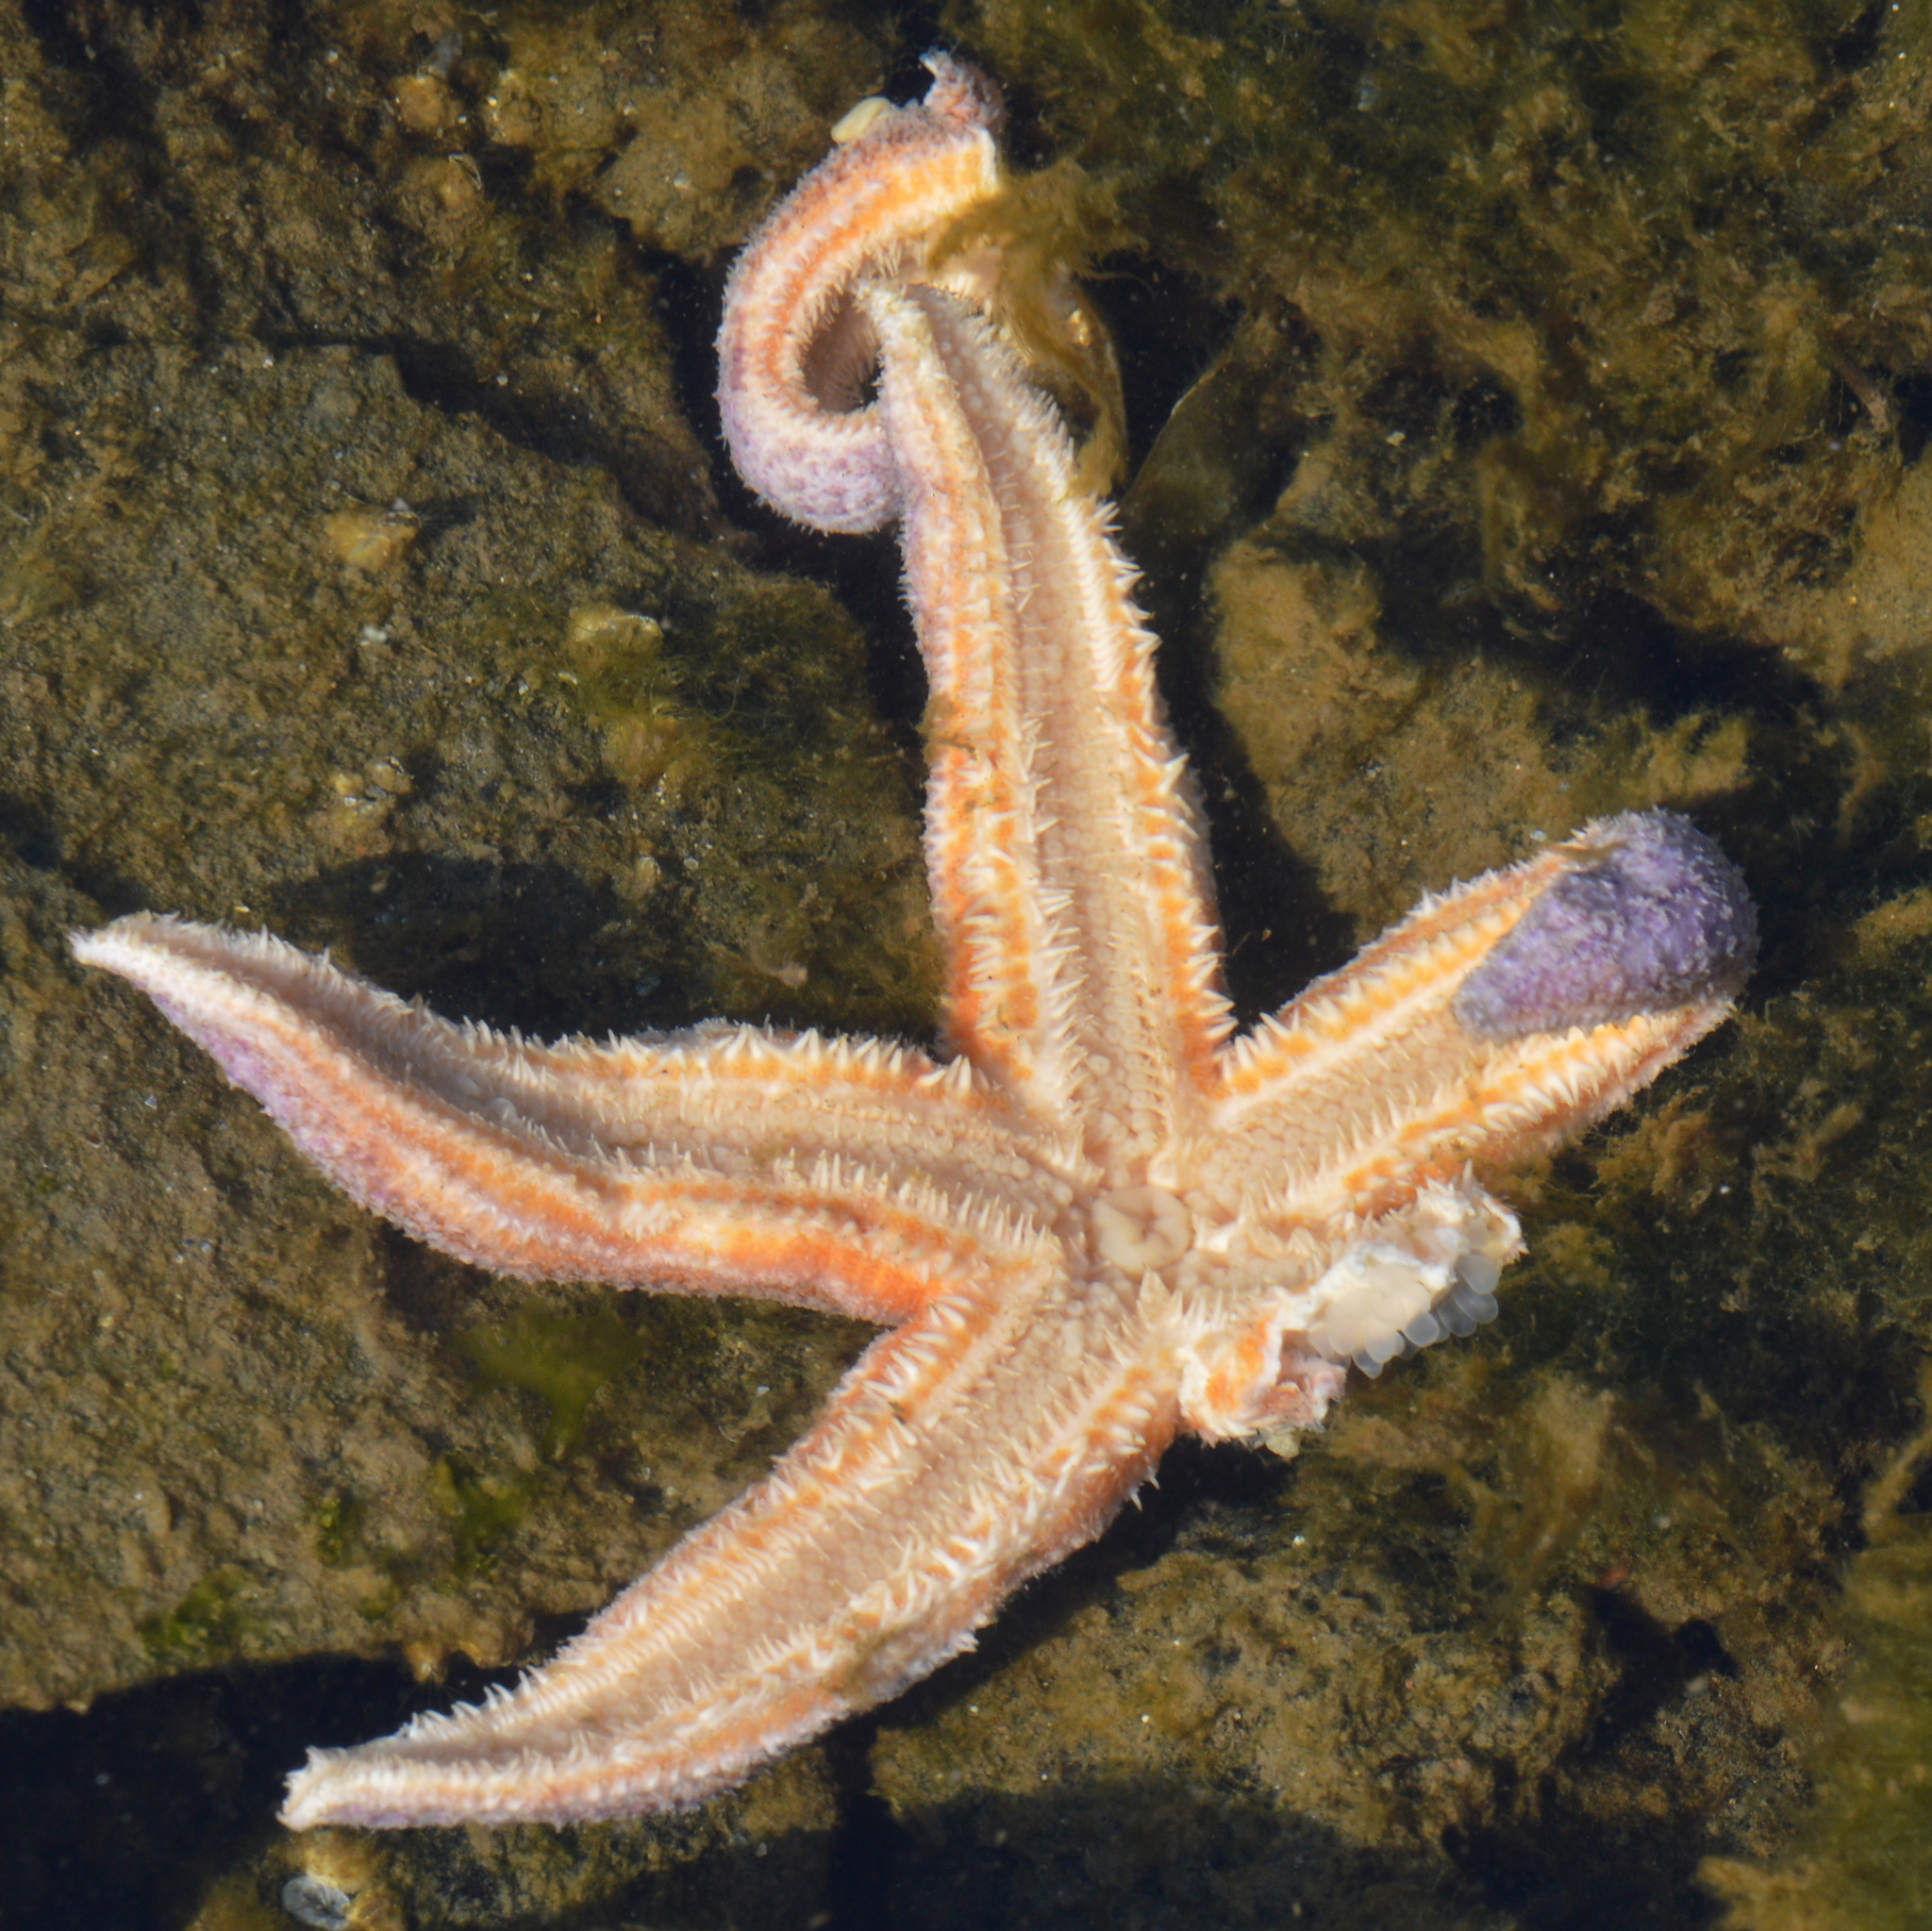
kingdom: Animalia
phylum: Echinodermata
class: Asteroidea
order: Forcipulatida
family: Asteriidae
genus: Asterias
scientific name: Asterias rubens
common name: Common starfish
